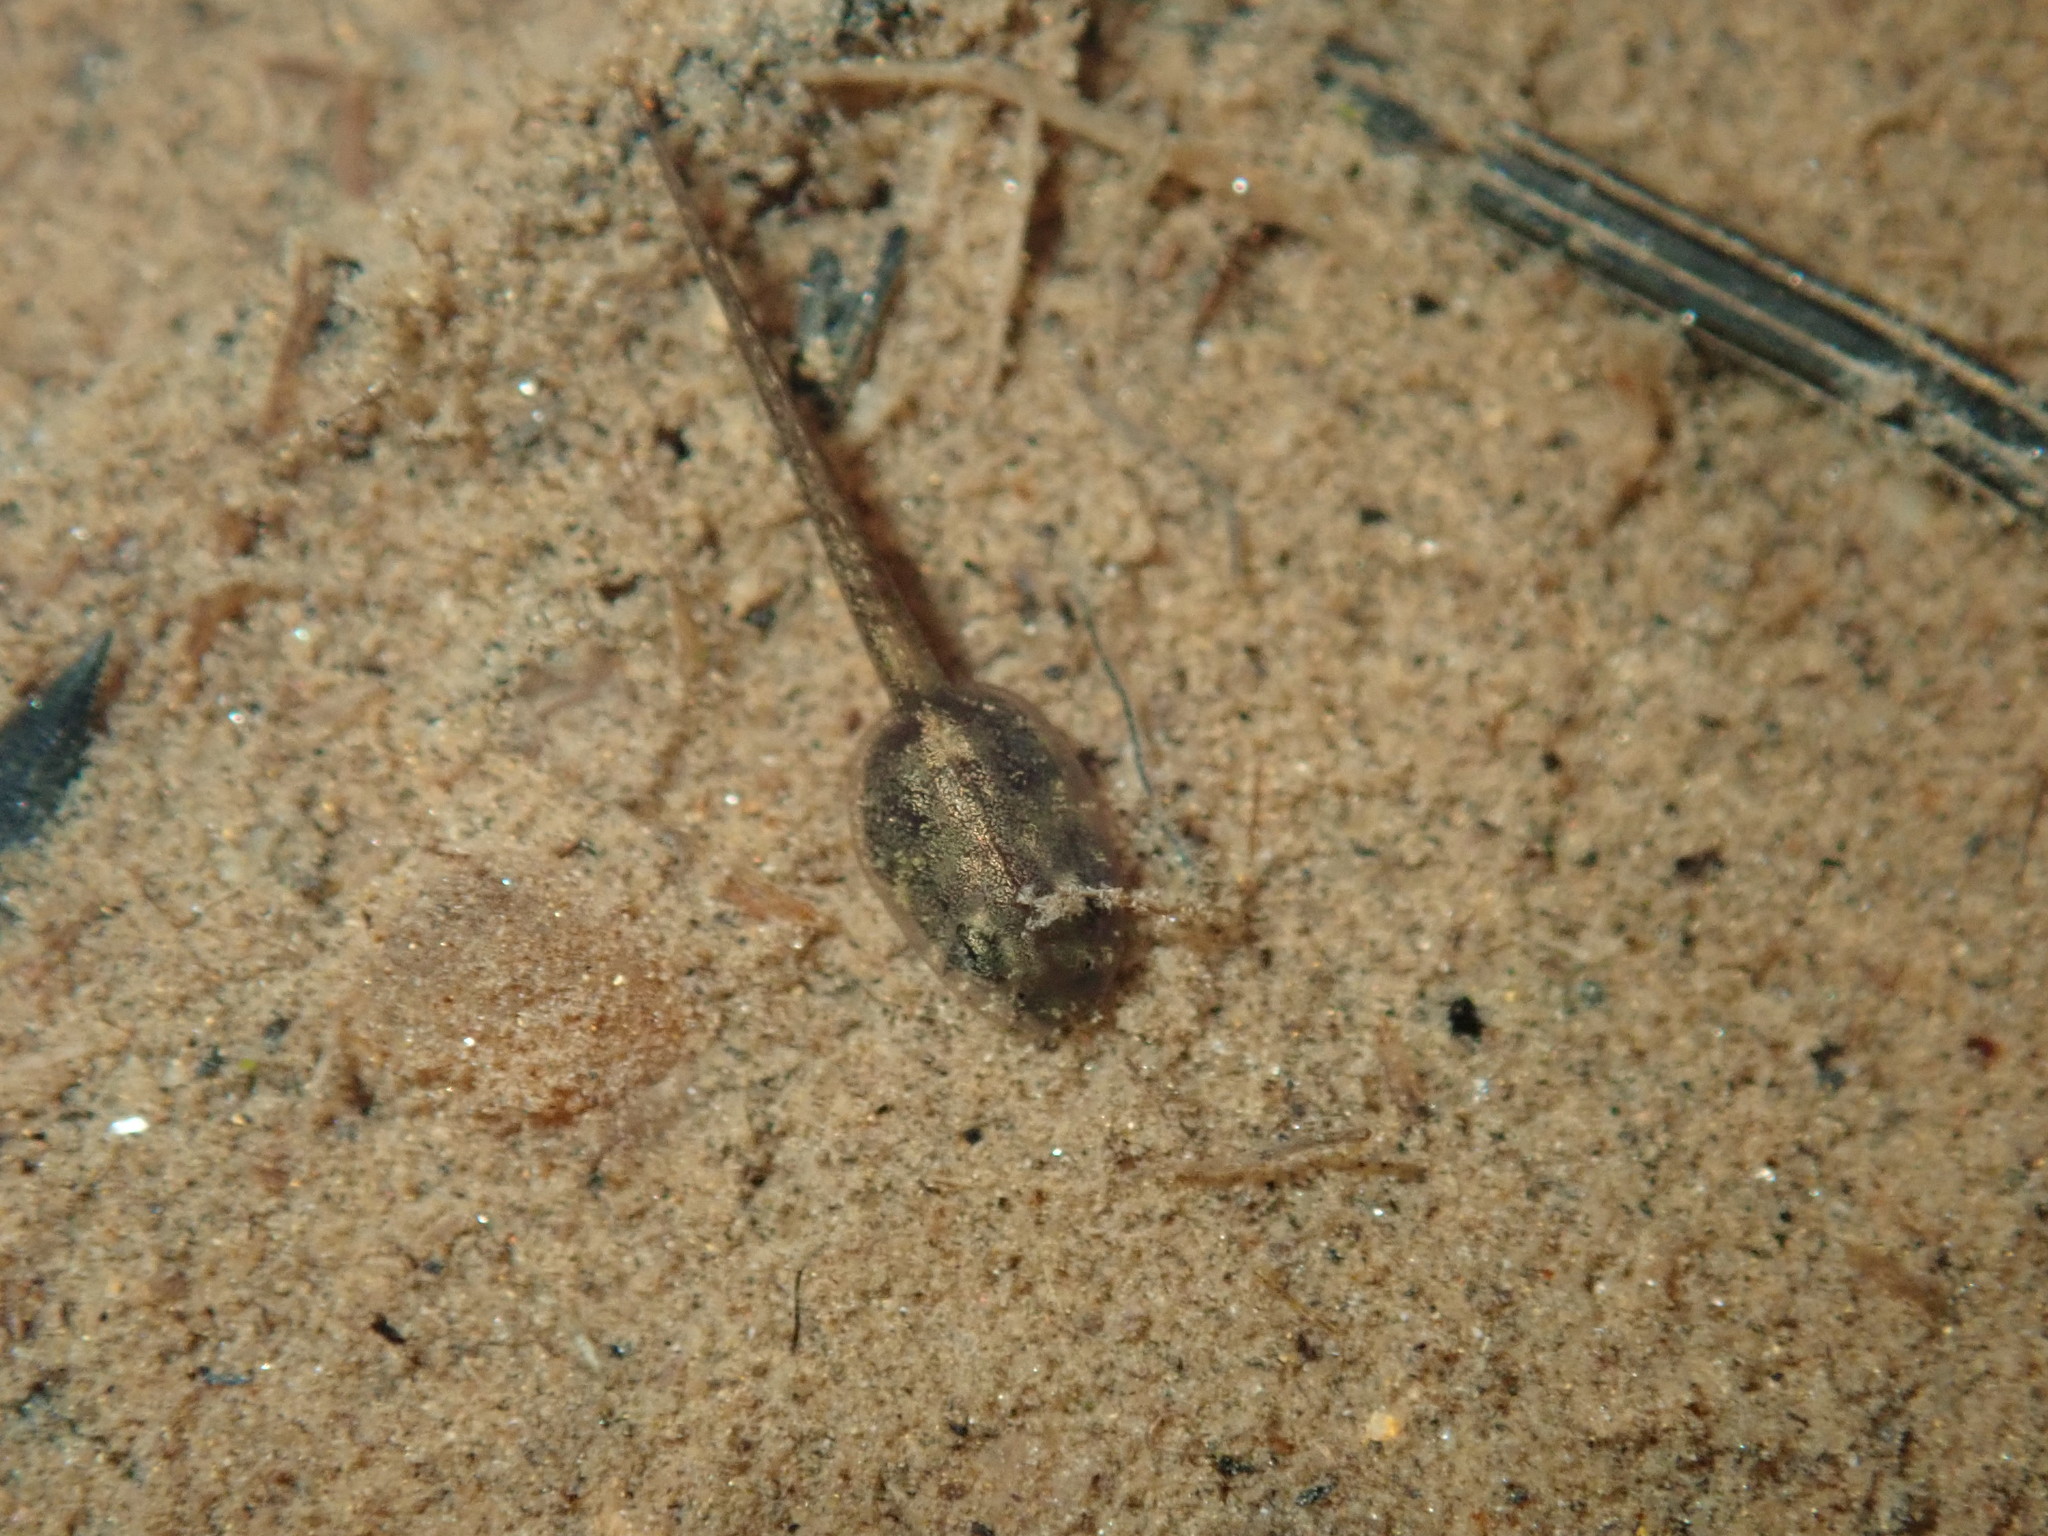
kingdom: Animalia
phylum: Chordata
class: Amphibia
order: Anura
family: Myobatrachidae
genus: Crinia
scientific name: Crinia signifera
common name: Brown froglet
